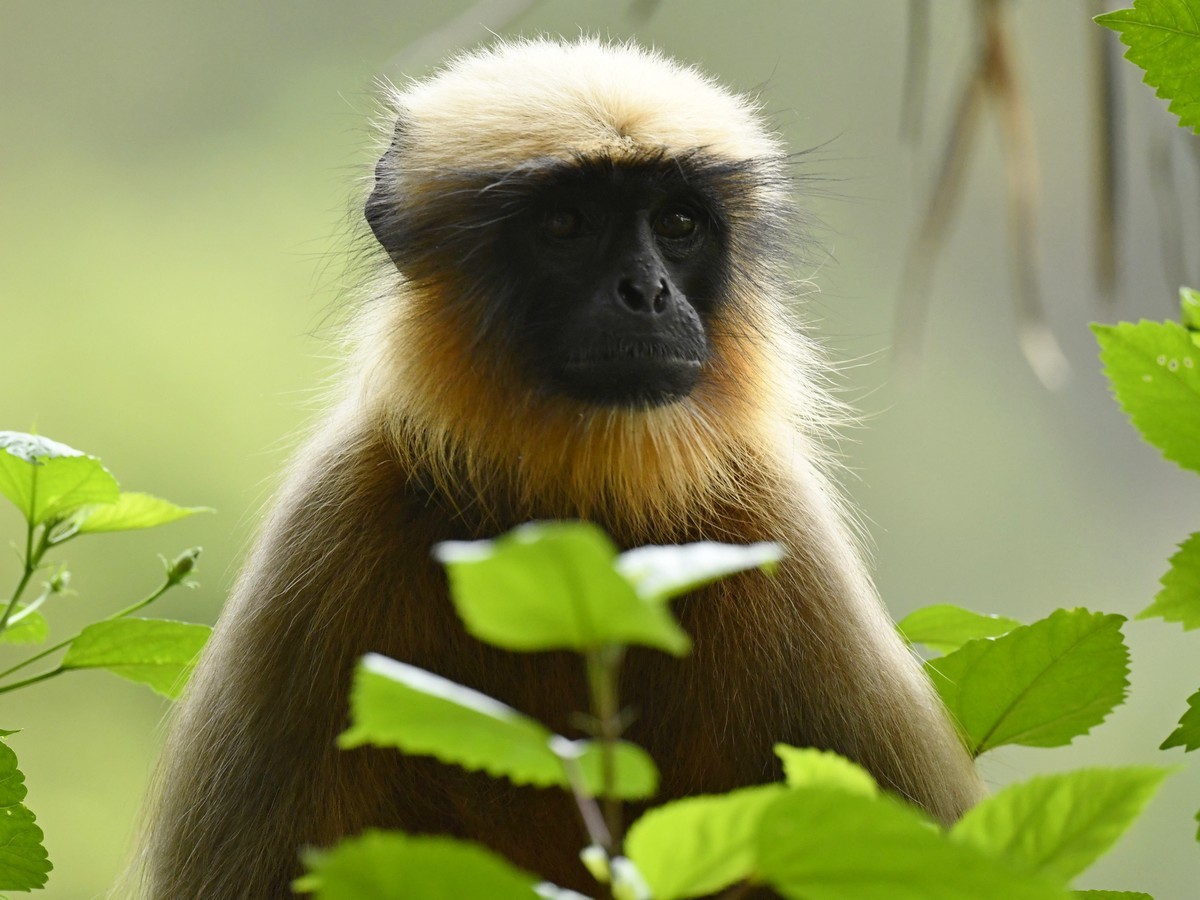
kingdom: Animalia
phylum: Chordata
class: Mammalia
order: Primates
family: Cercopithecidae
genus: Semnopithecus
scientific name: Semnopithecus hypoleucos
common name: Black-footed gray langur
